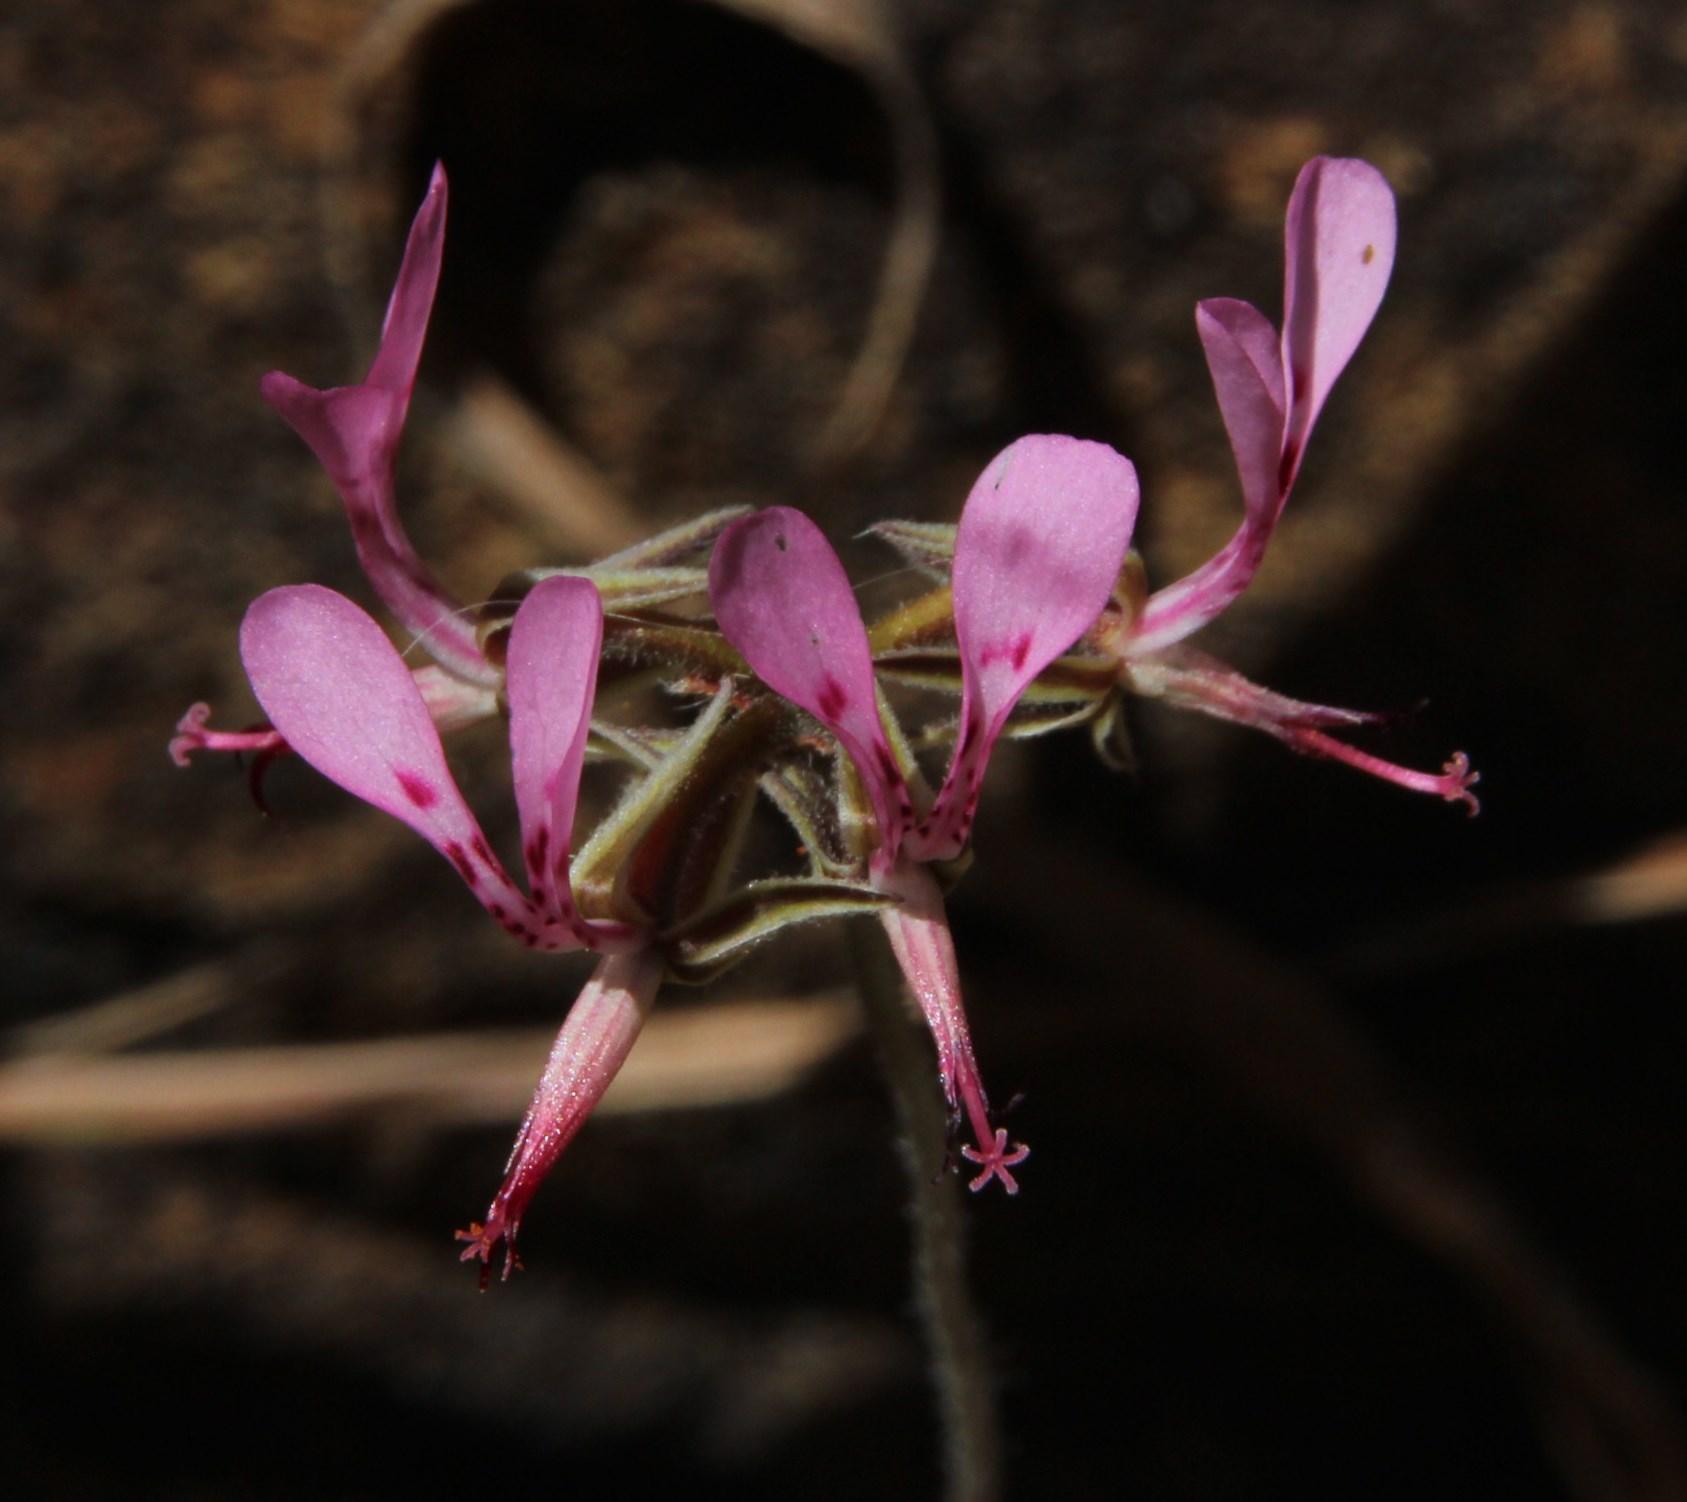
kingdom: Plantae
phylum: Tracheophyta
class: Magnoliopsida
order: Geraniales
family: Geraniaceae
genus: Pelargonium
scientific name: Pelargonium ternifolium
